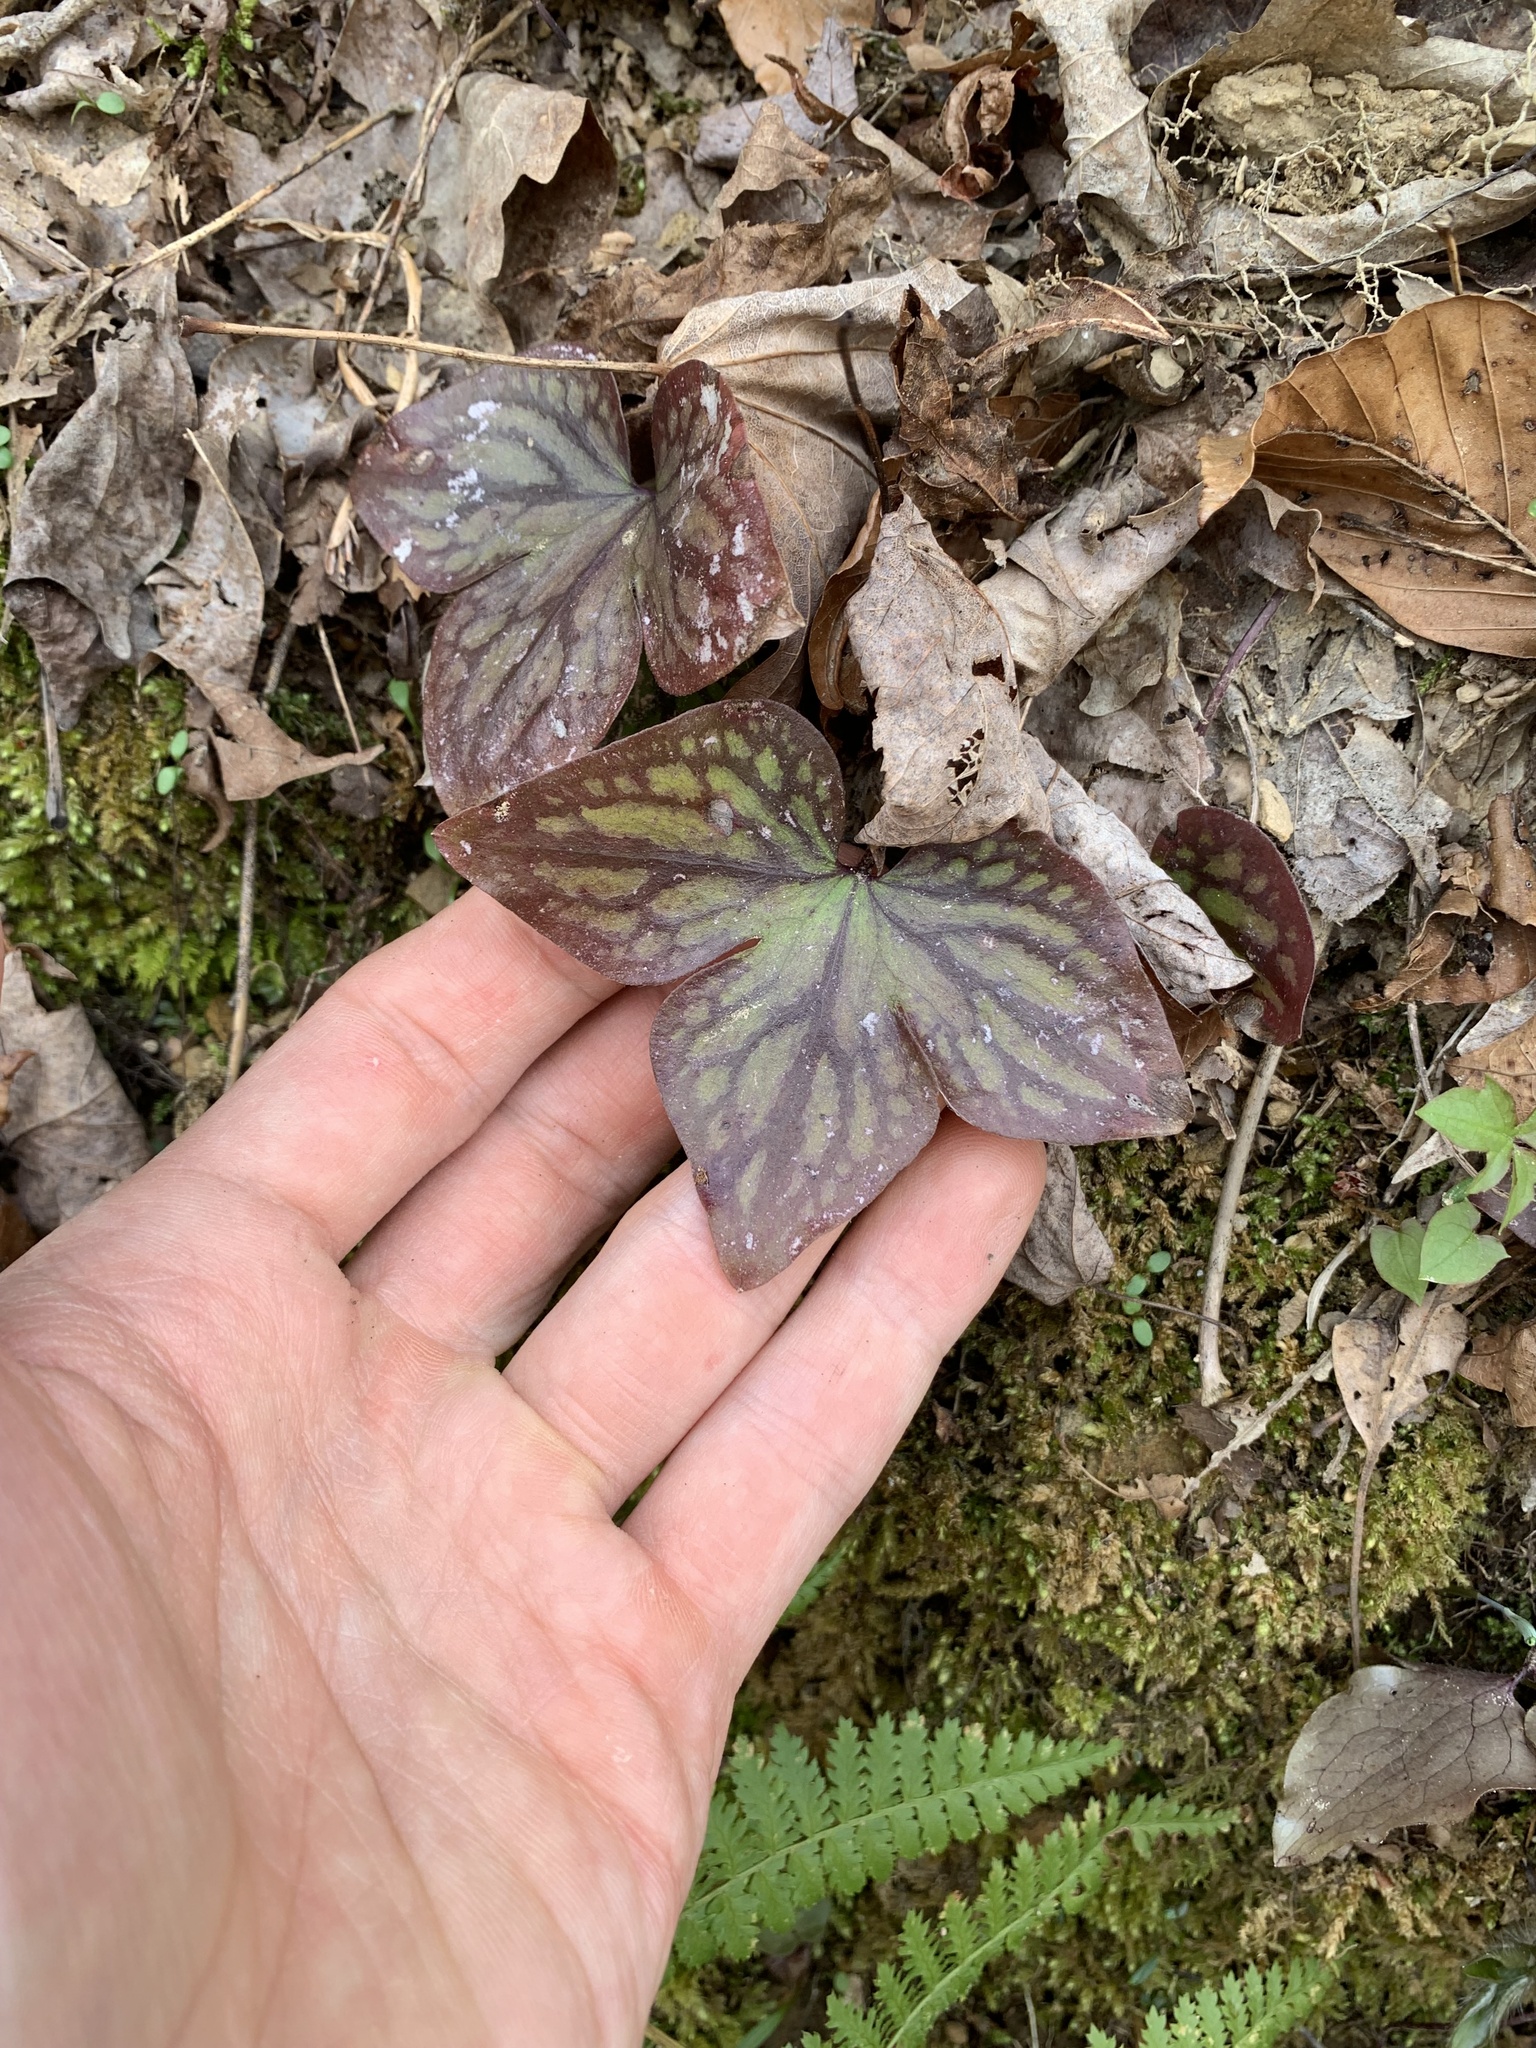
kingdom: Plantae
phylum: Tracheophyta
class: Magnoliopsida
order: Ranunculales
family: Ranunculaceae
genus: Hepatica
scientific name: Hepatica acutiloba
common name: Sharp-lobed hepatica
